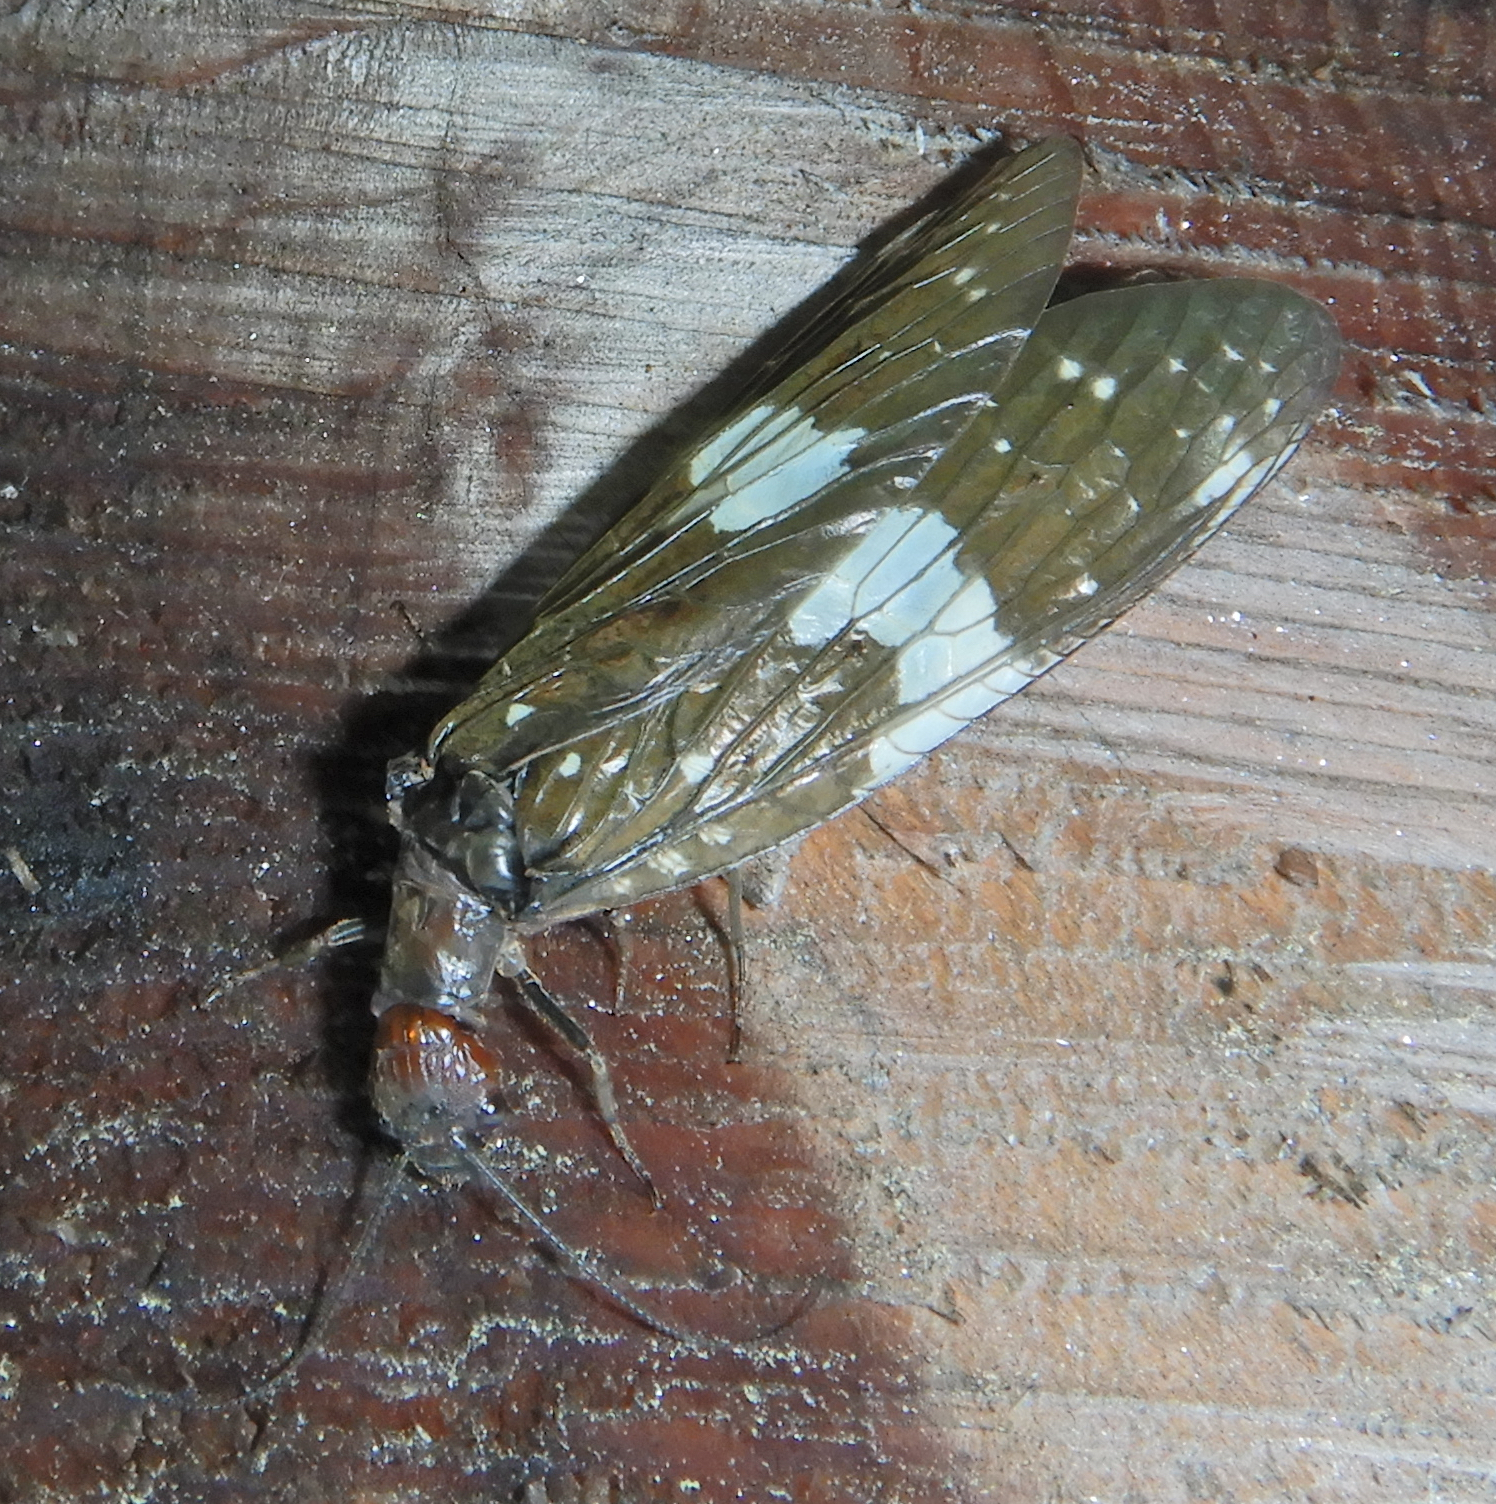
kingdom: Animalia
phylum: Arthropoda
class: Insecta
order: Megaloptera
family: Corydalidae
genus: Nigronia
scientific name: Nigronia serricornis
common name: Serrate dark fishfly
